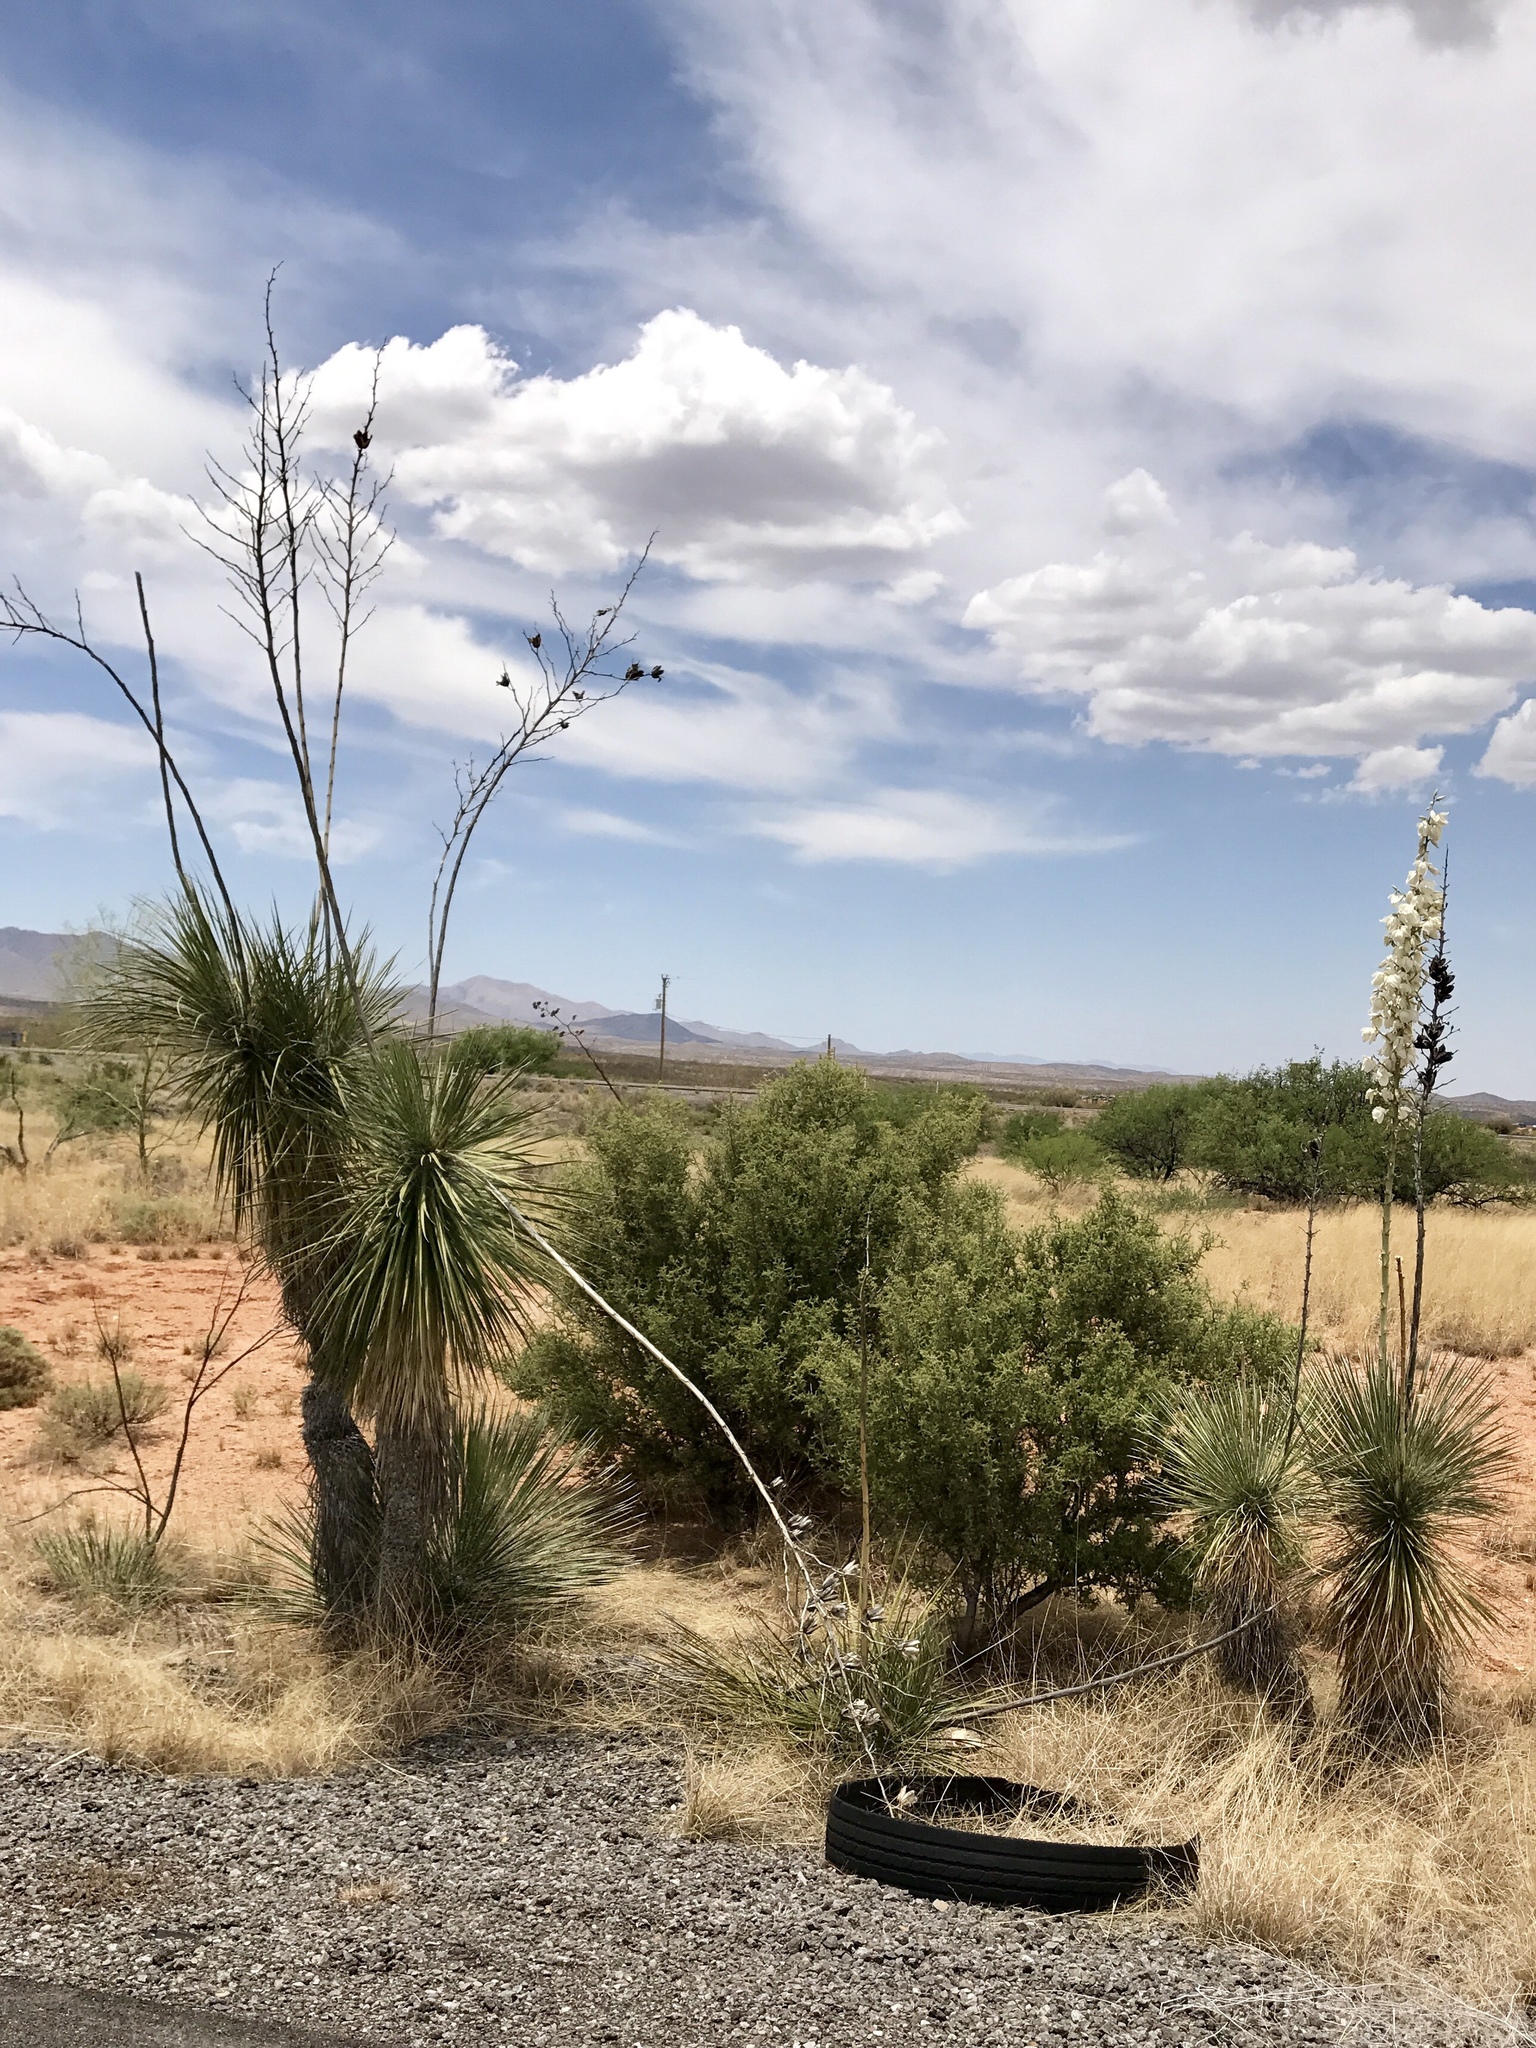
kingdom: Plantae
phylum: Tracheophyta
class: Liliopsida
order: Asparagales
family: Asparagaceae
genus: Yucca
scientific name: Yucca elata
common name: Palmella
